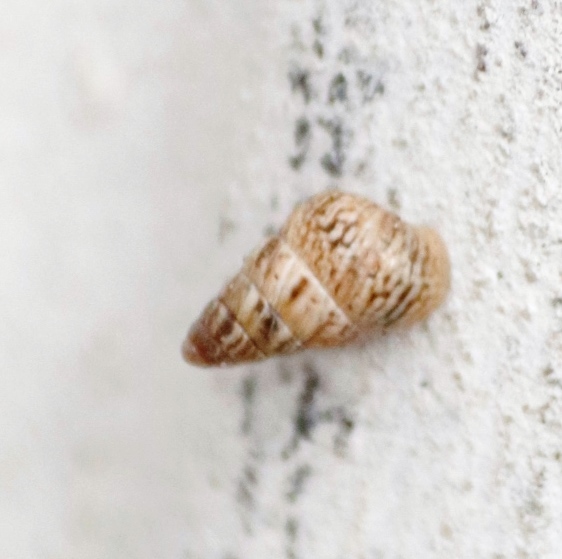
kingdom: Animalia
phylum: Mollusca
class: Gastropoda
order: Stylommatophora
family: Geomitridae
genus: Cochlicella
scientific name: Cochlicella barbara
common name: Potbellied helicellid
